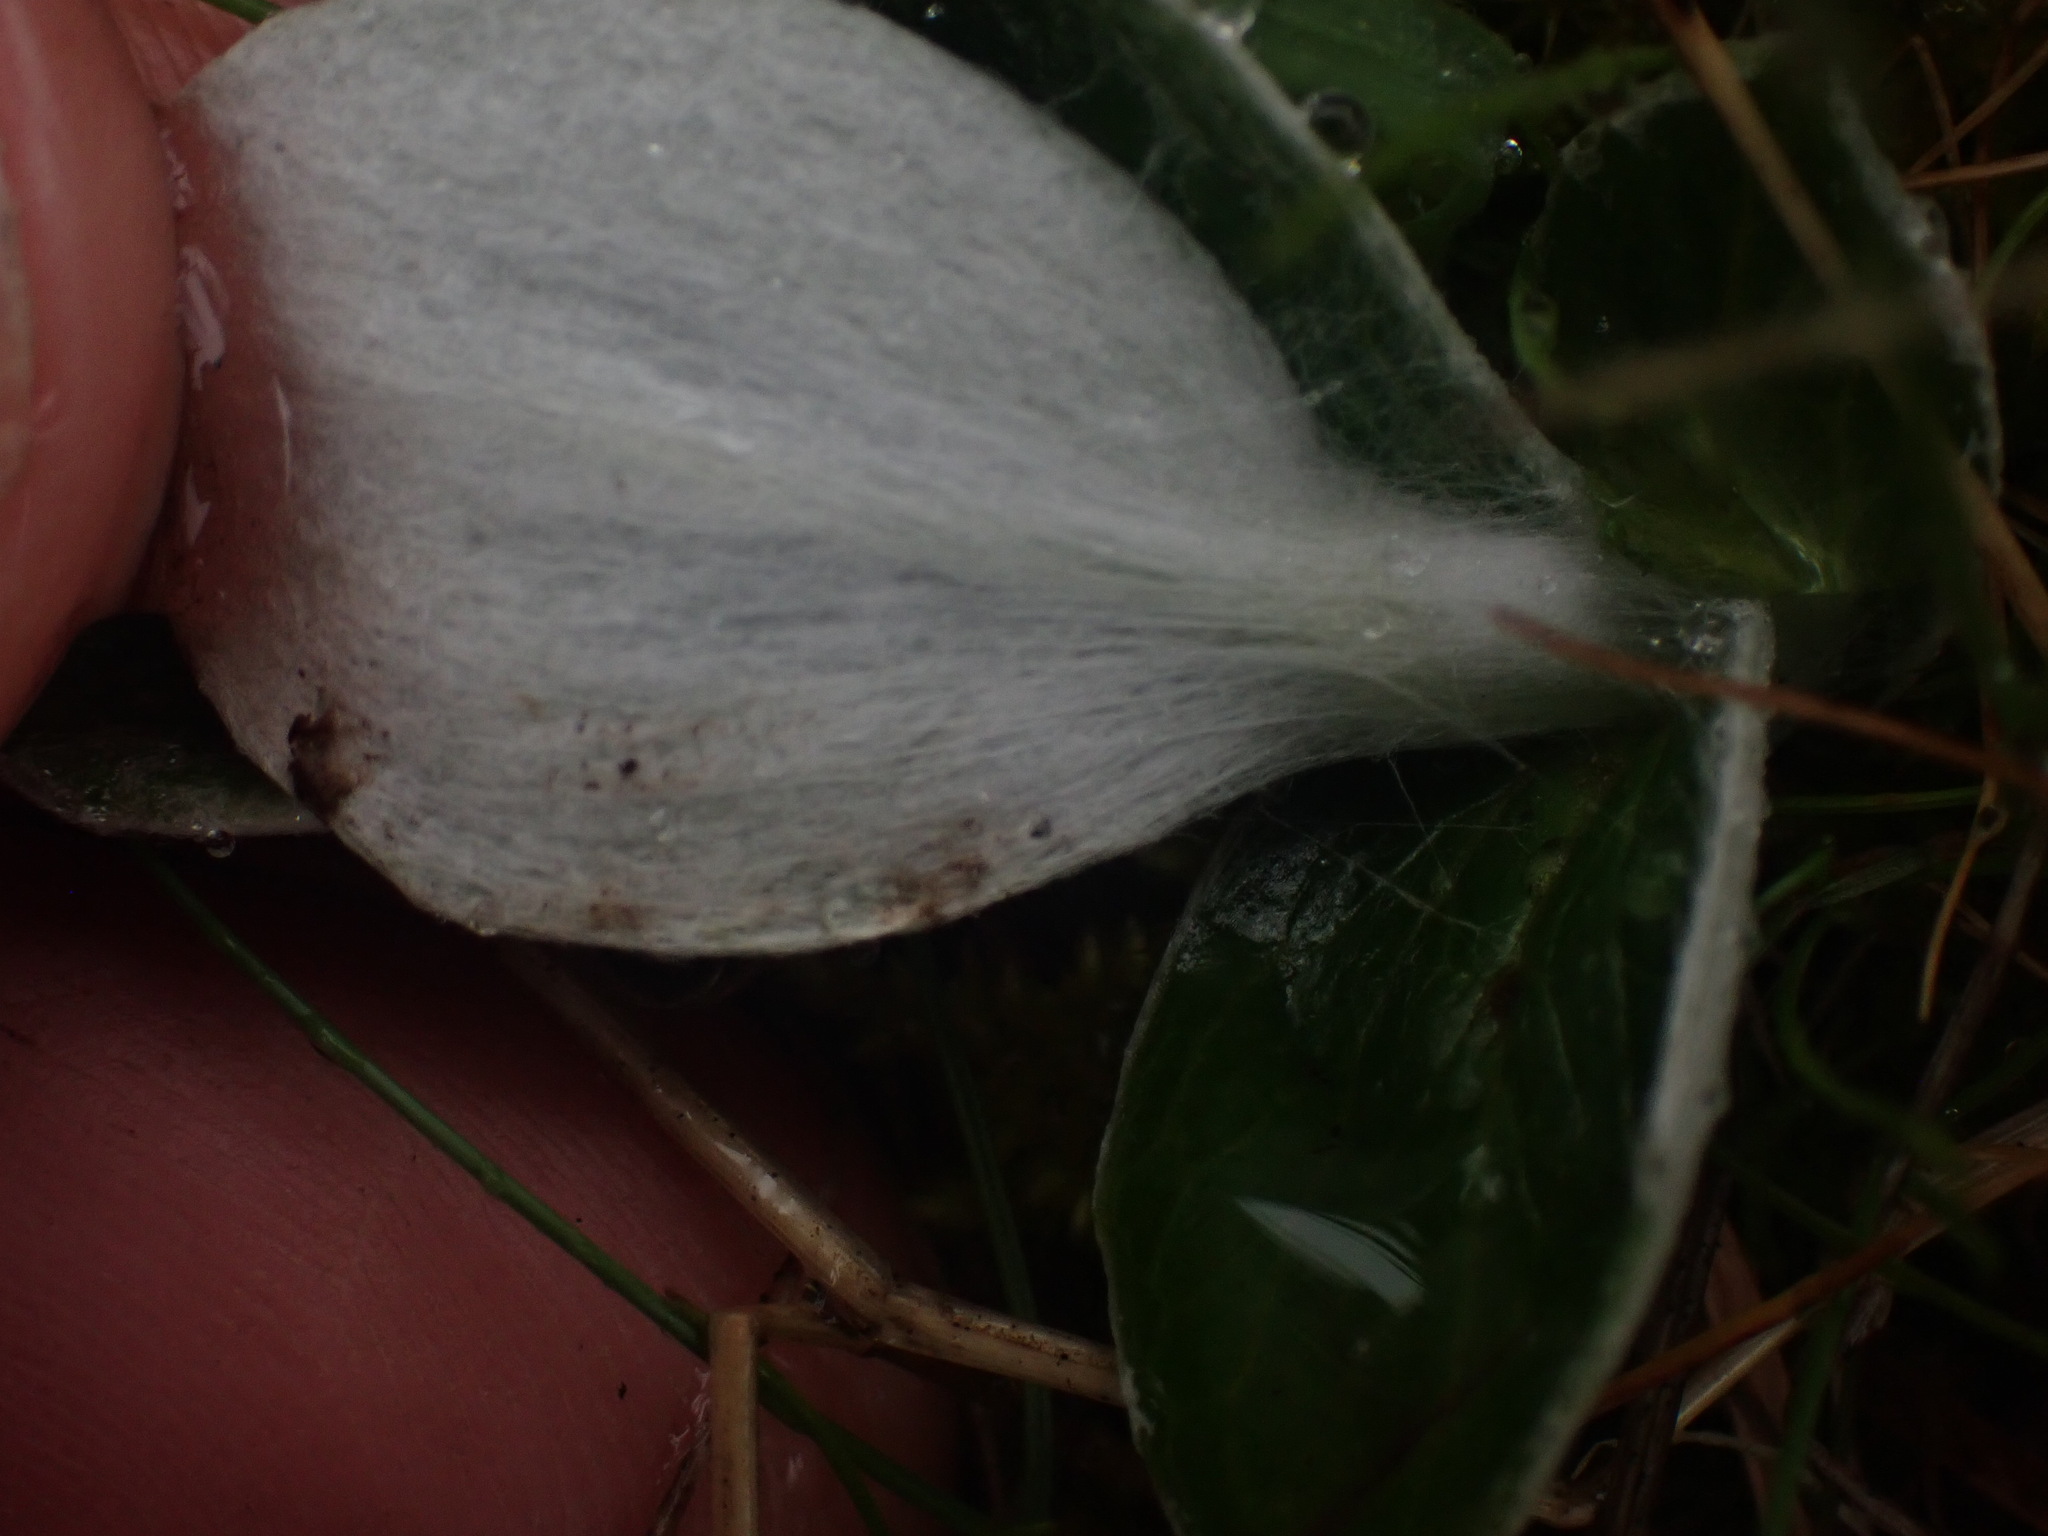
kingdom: Plantae
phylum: Tracheophyta
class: Magnoliopsida
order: Asterales
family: Asteraceae
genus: Luina
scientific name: Luina hypoleuca
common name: Little-leaved luina
